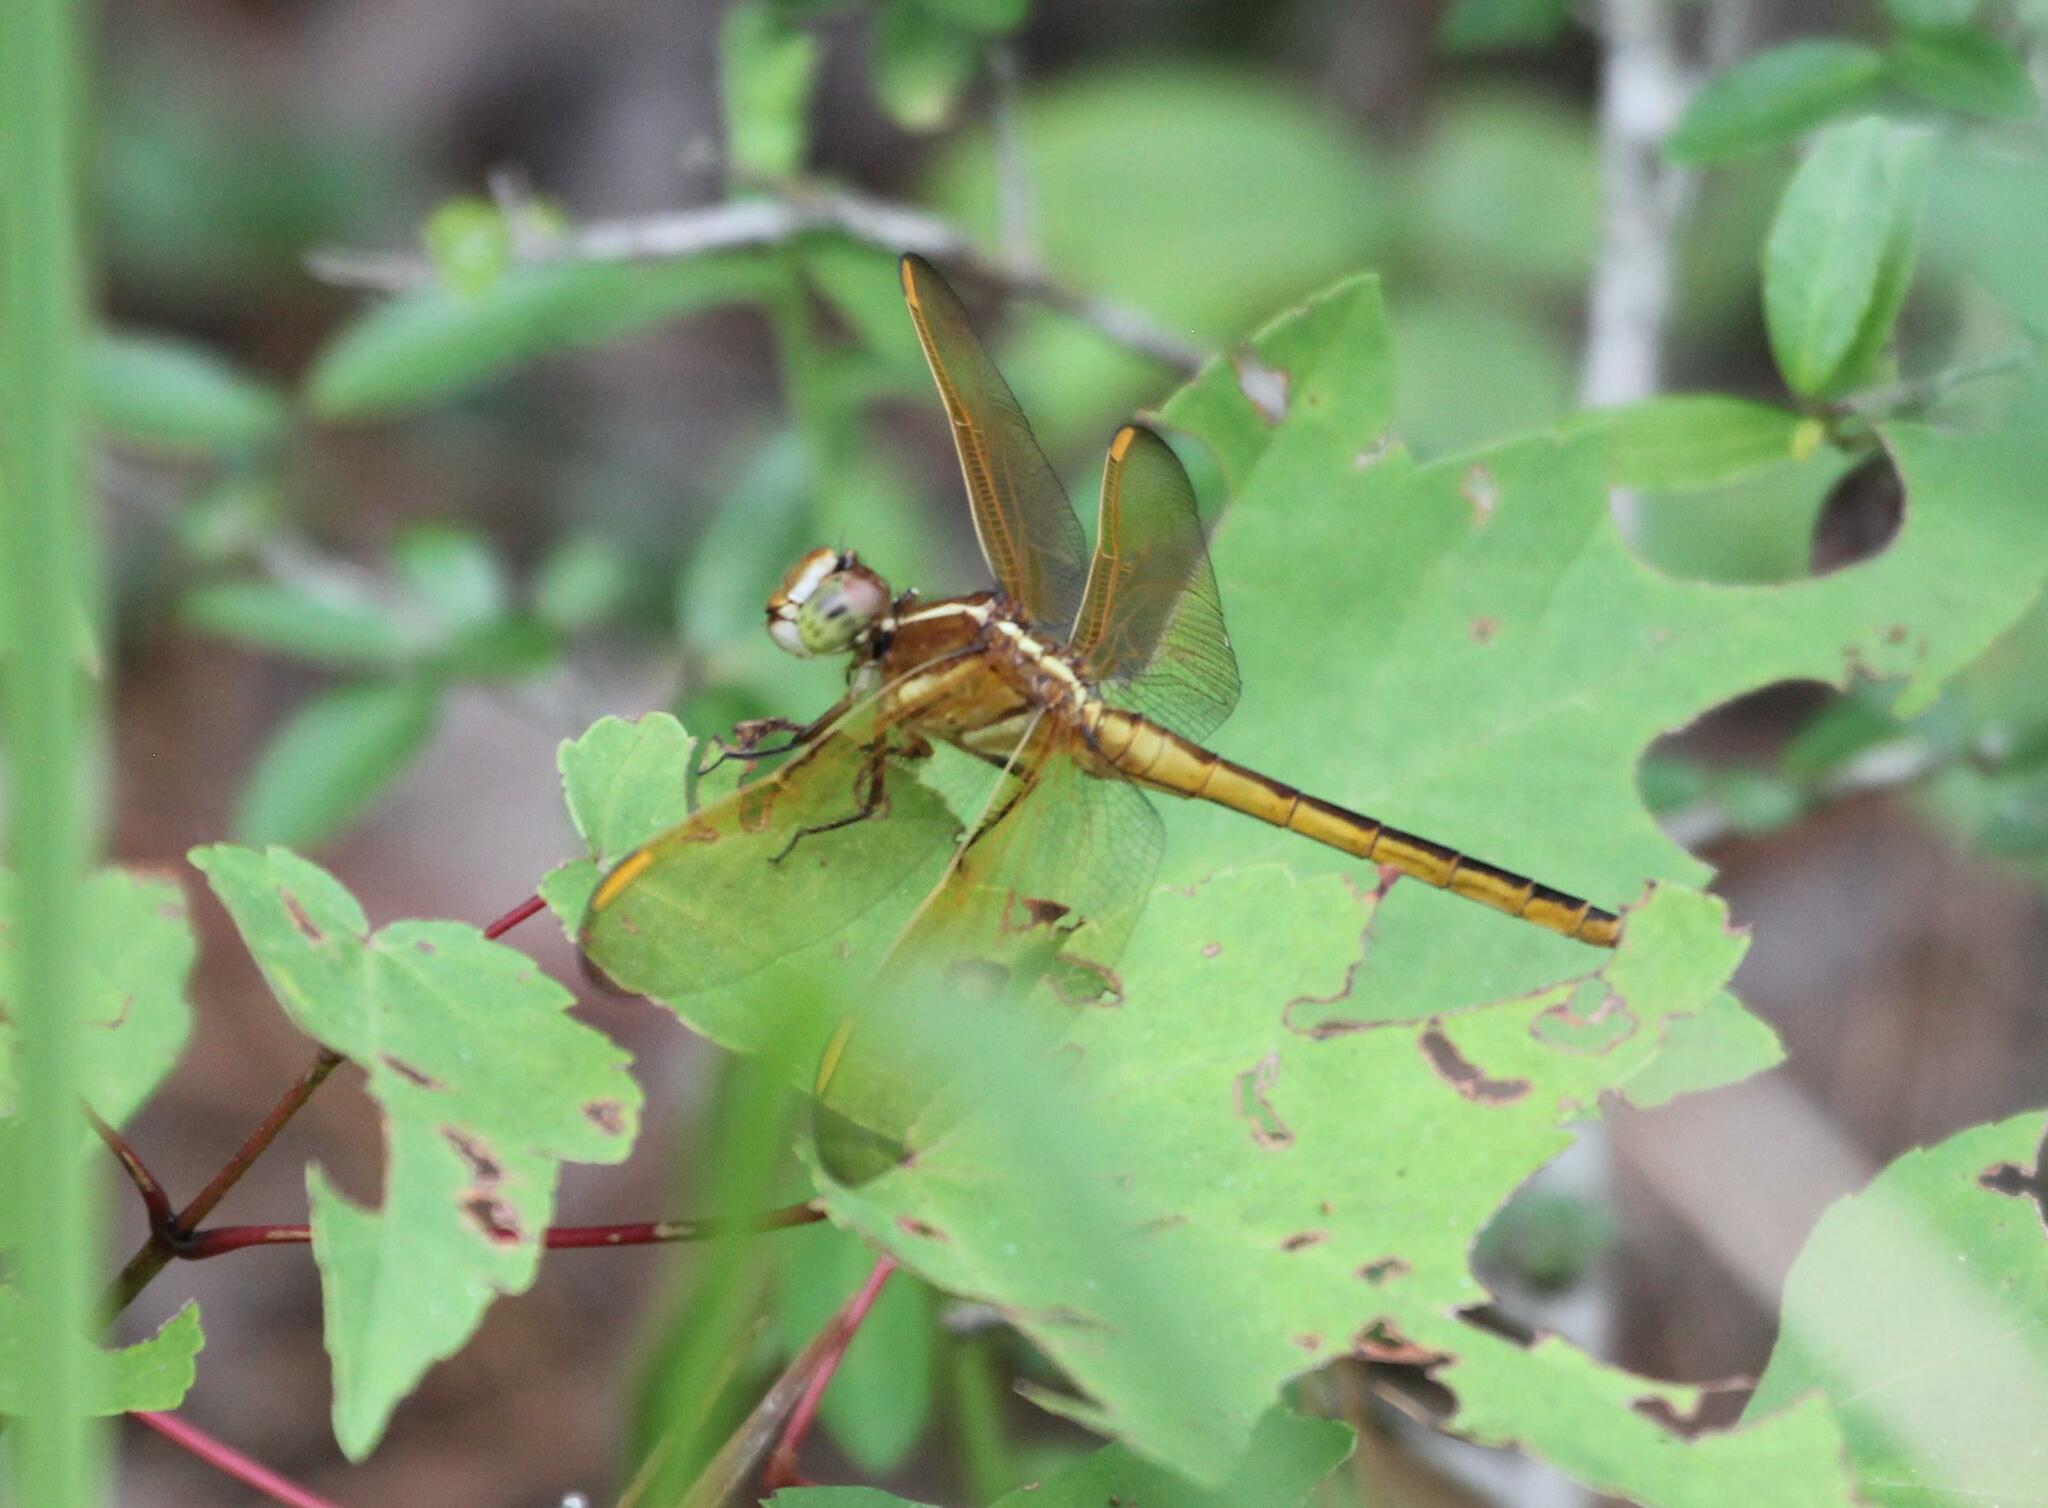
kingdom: Animalia
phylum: Arthropoda
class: Insecta
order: Odonata
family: Libellulidae
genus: Libellula
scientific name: Libellula auripennis
